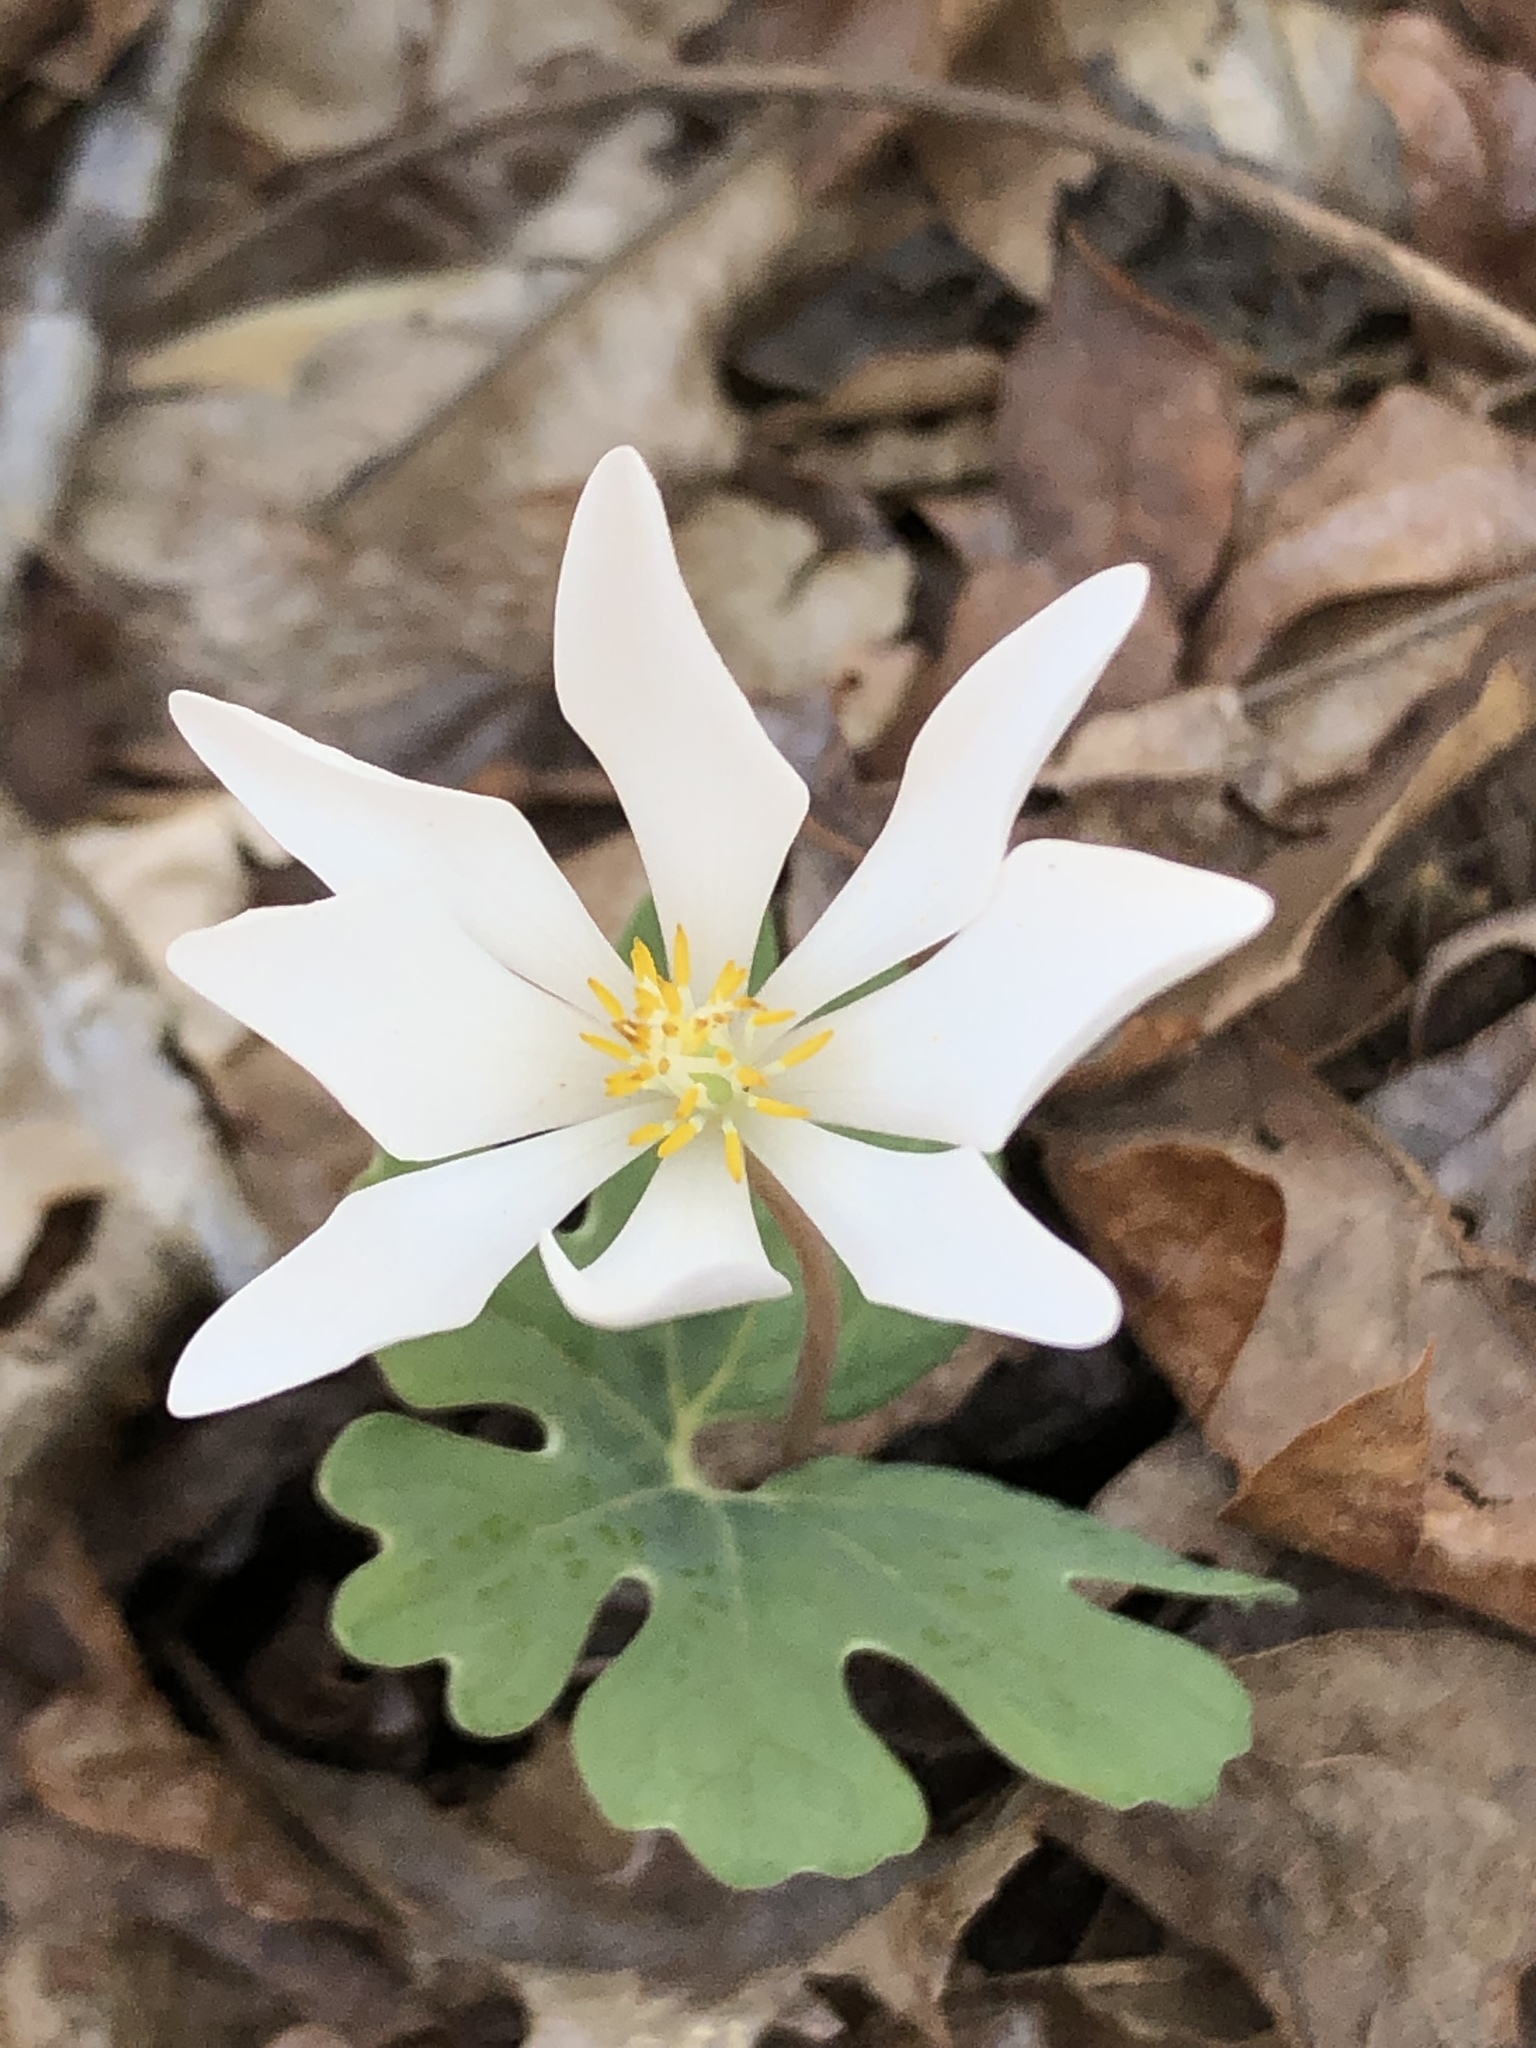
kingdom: Plantae
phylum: Tracheophyta
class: Magnoliopsida
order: Ranunculales
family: Papaveraceae
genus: Sanguinaria
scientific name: Sanguinaria canadensis
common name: Bloodroot
